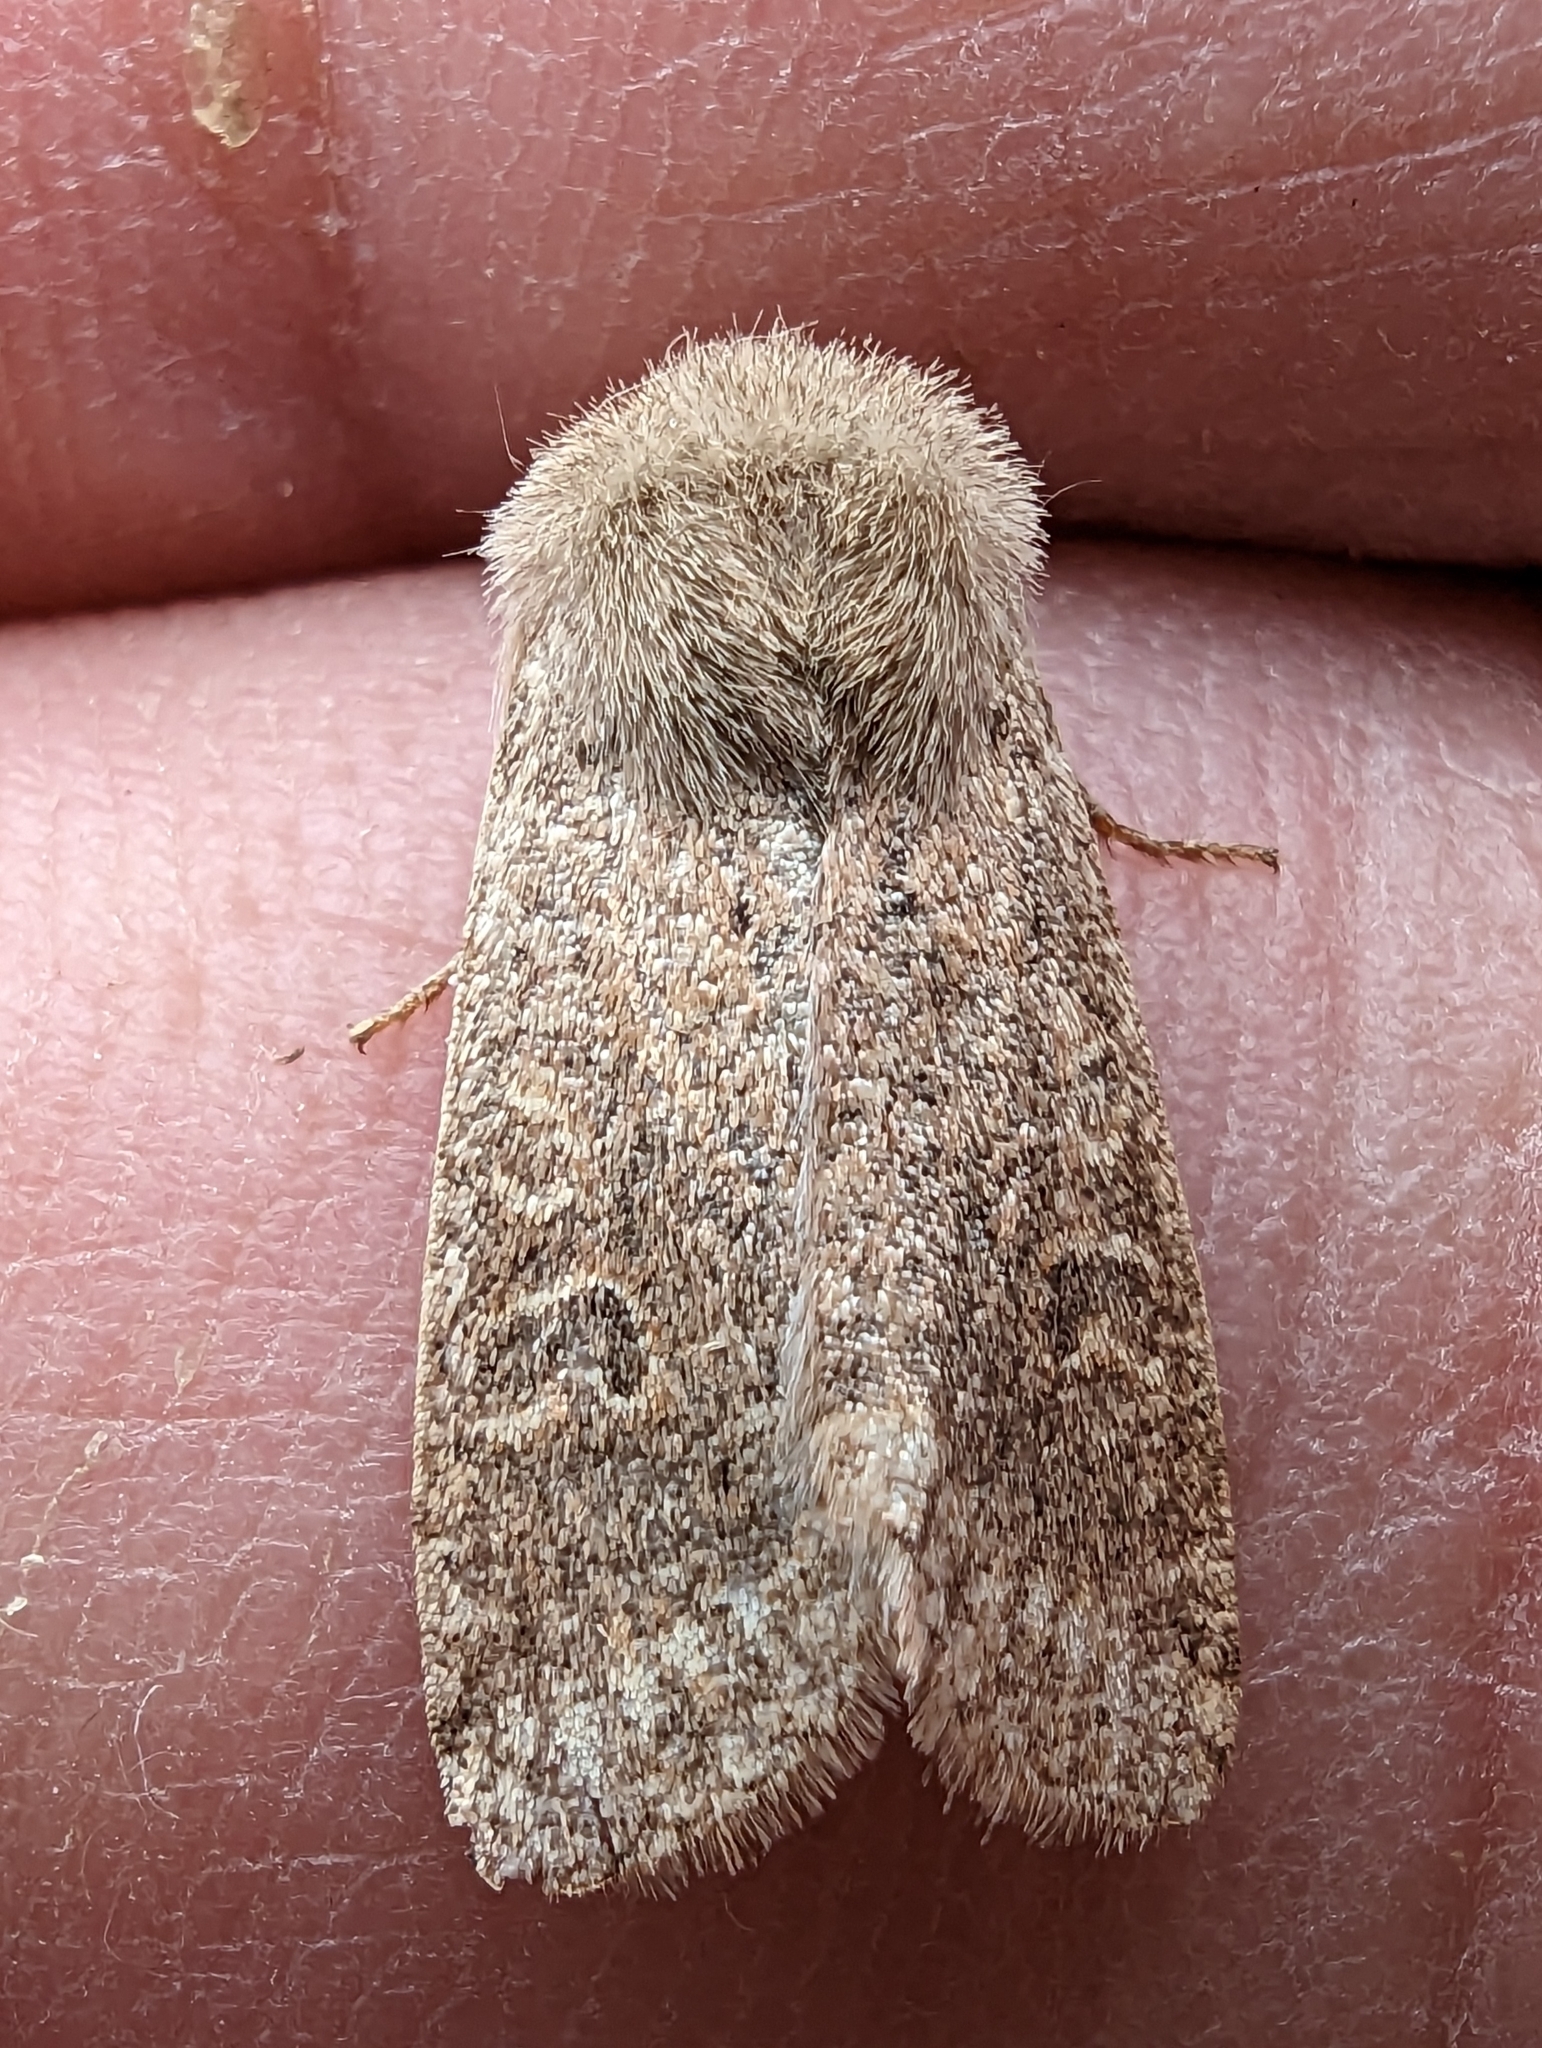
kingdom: Animalia
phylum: Arthropoda
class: Insecta
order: Lepidoptera
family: Noctuidae
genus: Orthosia
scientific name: Orthosia cruda
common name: Small quaker
